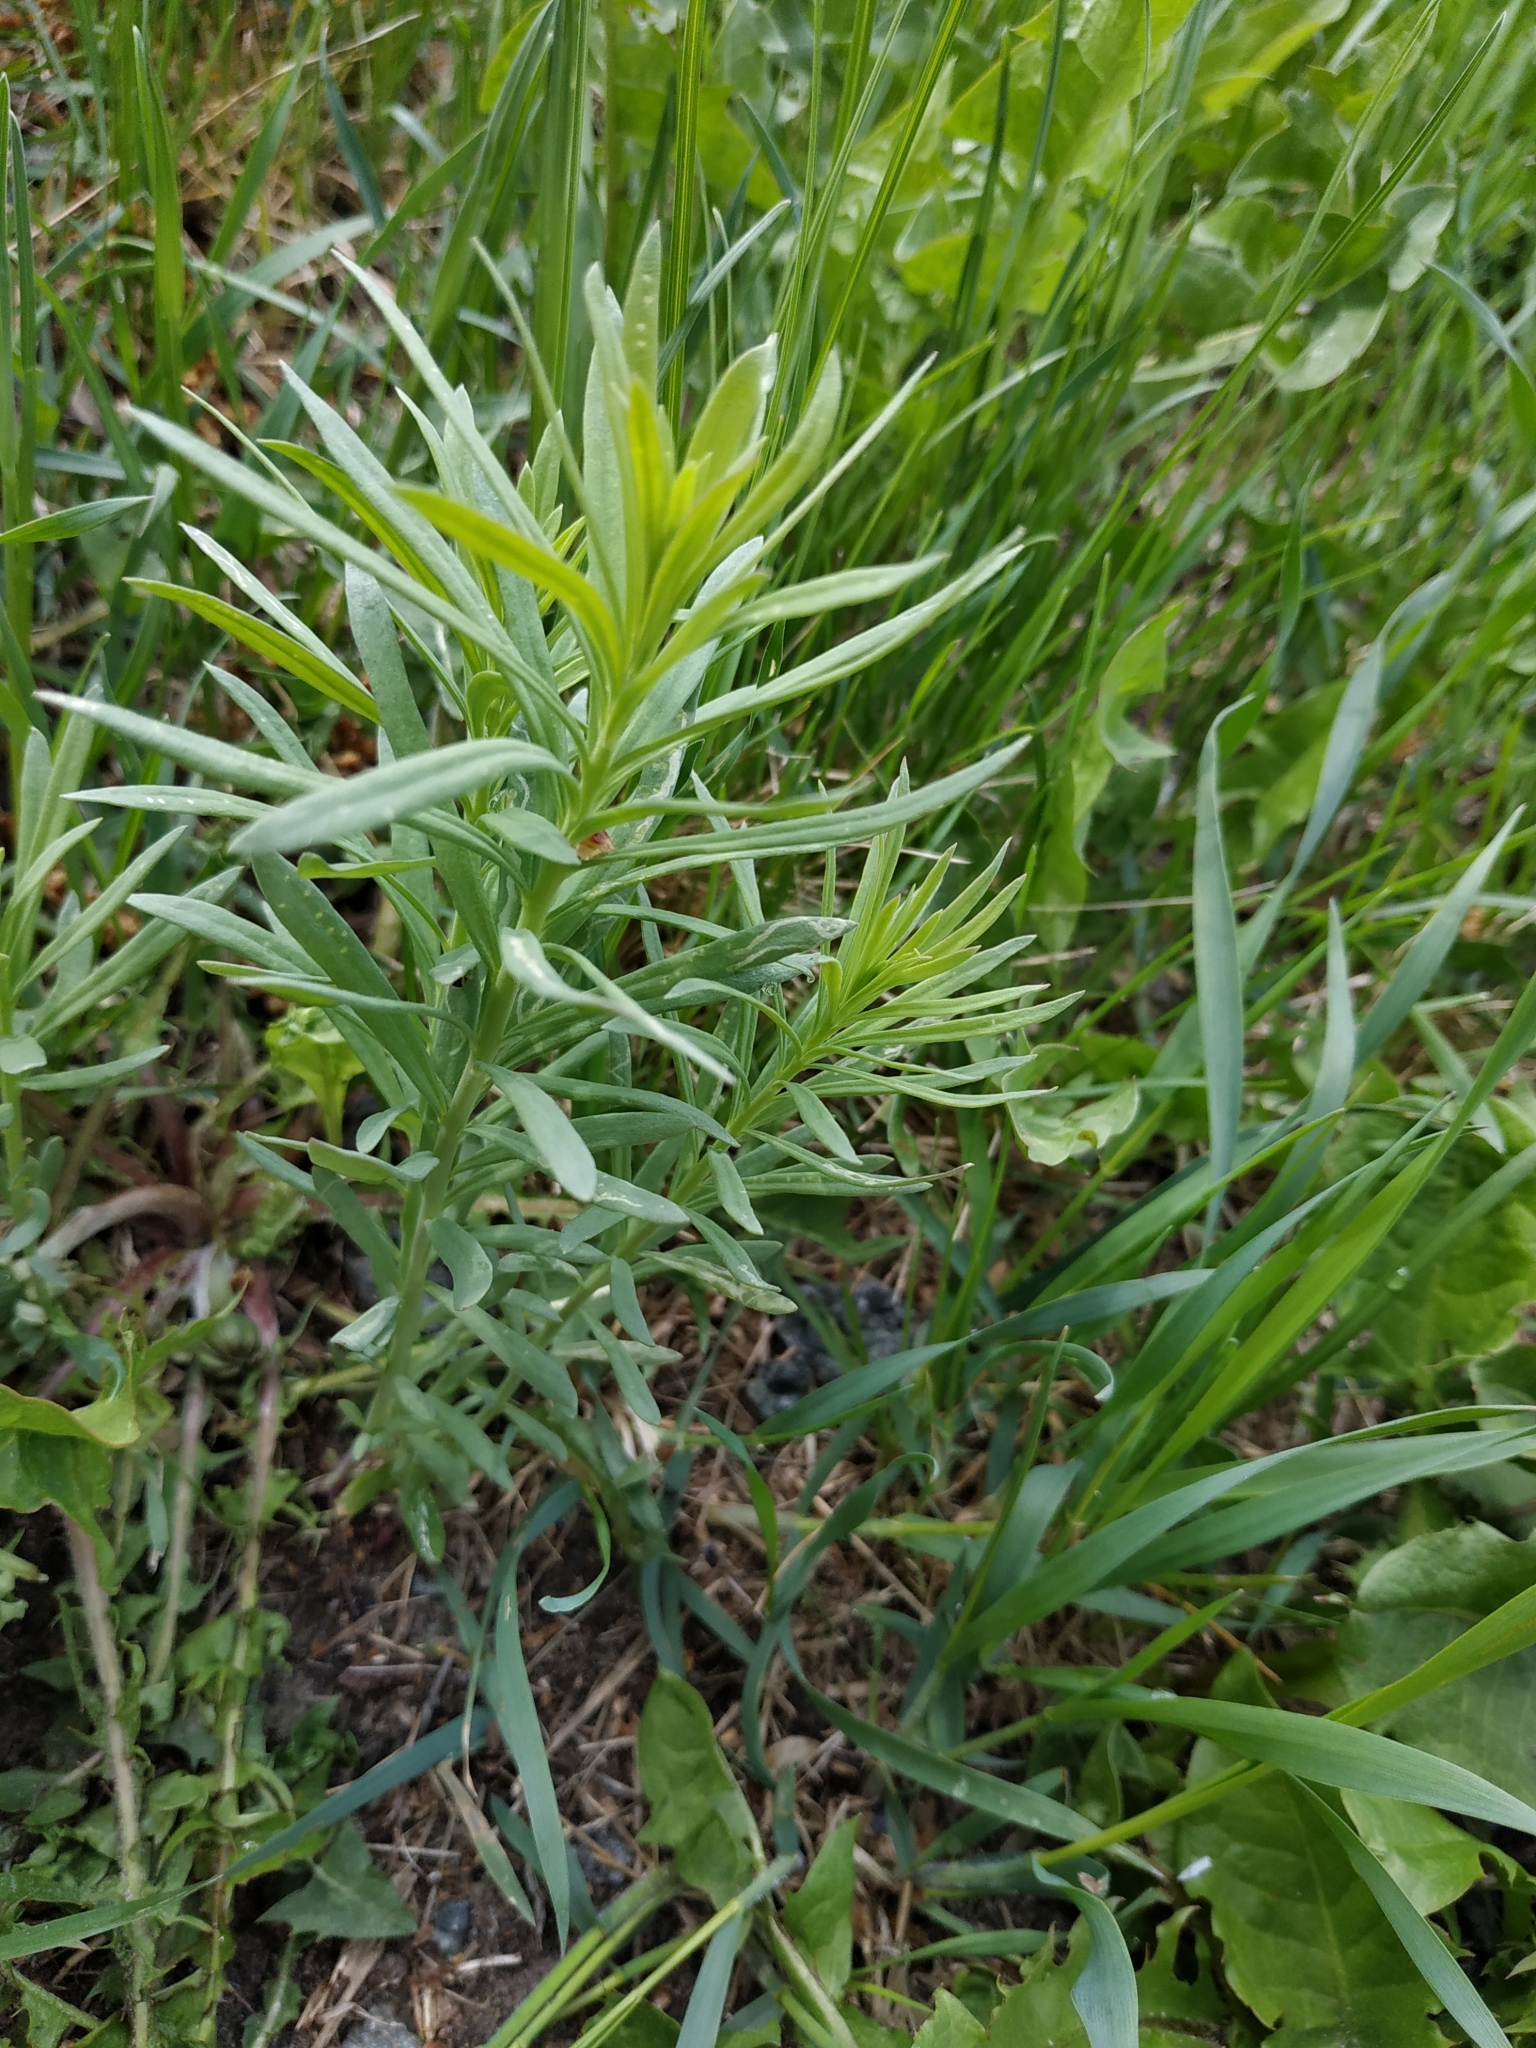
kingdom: Plantae
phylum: Tracheophyta
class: Magnoliopsida
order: Lamiales
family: Plantaginaceae
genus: Linaria
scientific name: Linaria vulgaris
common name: Butter and eggs
